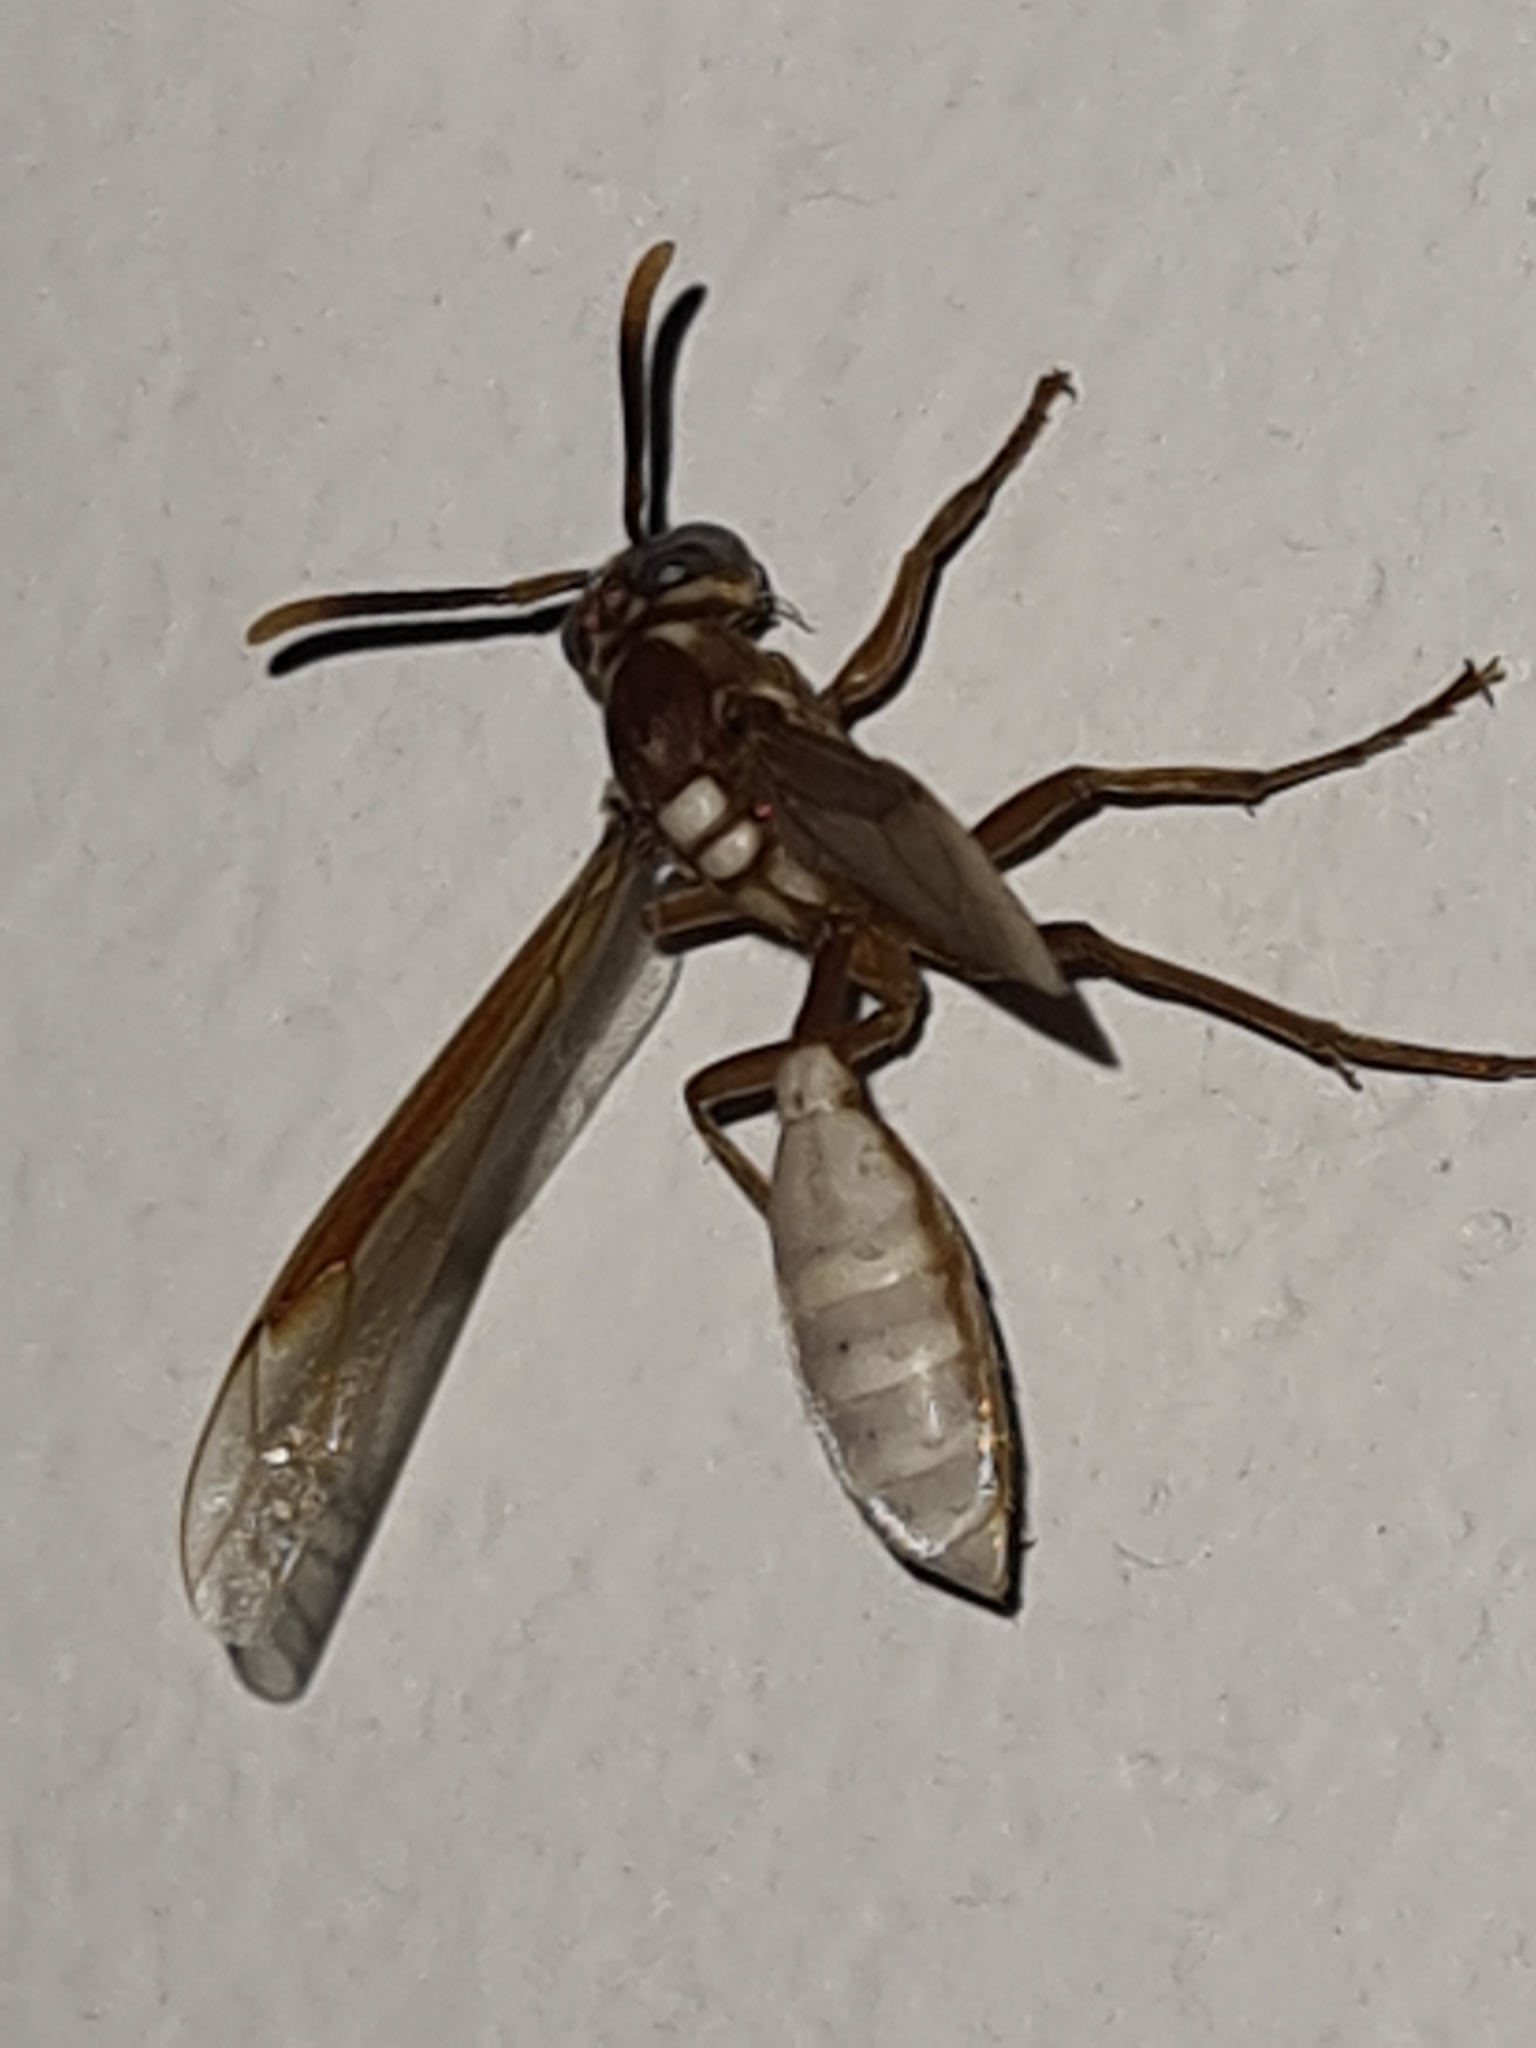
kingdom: Animalia
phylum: Arthropoda
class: Insecta
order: Hymenoptera
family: Vespidae
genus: Apoica
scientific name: Apoica gelida
